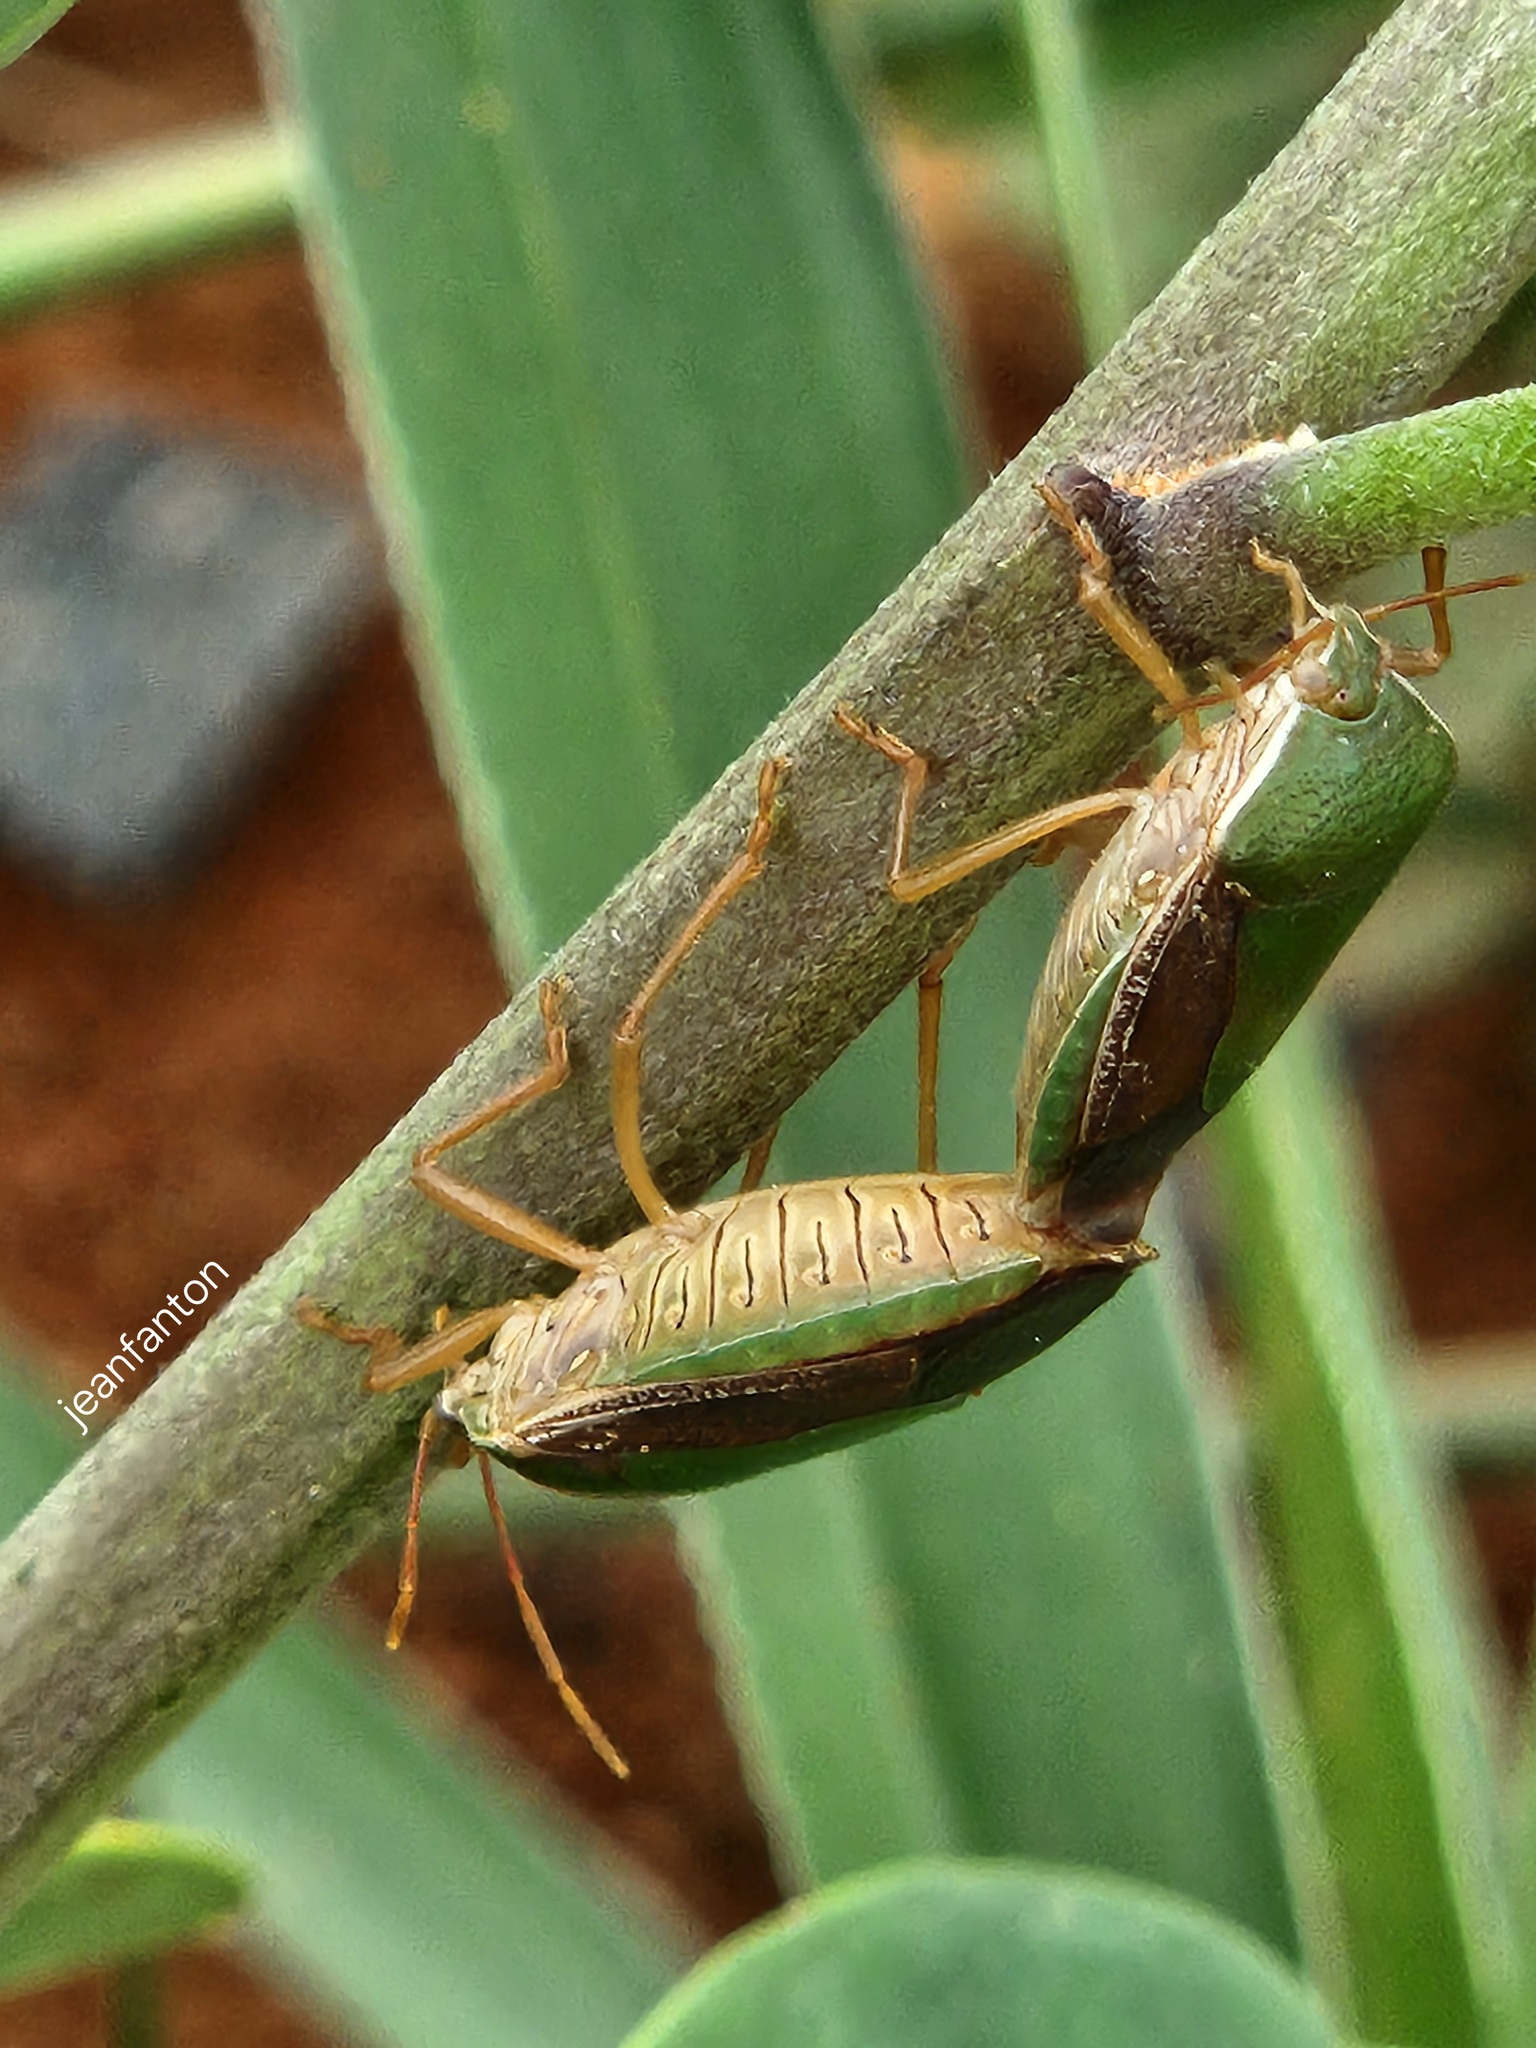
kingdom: Animalia
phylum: Arthropoda
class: Insecta
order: Hemiptera
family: Pentatomidae
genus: Edessa
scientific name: Edessa meditabunda
